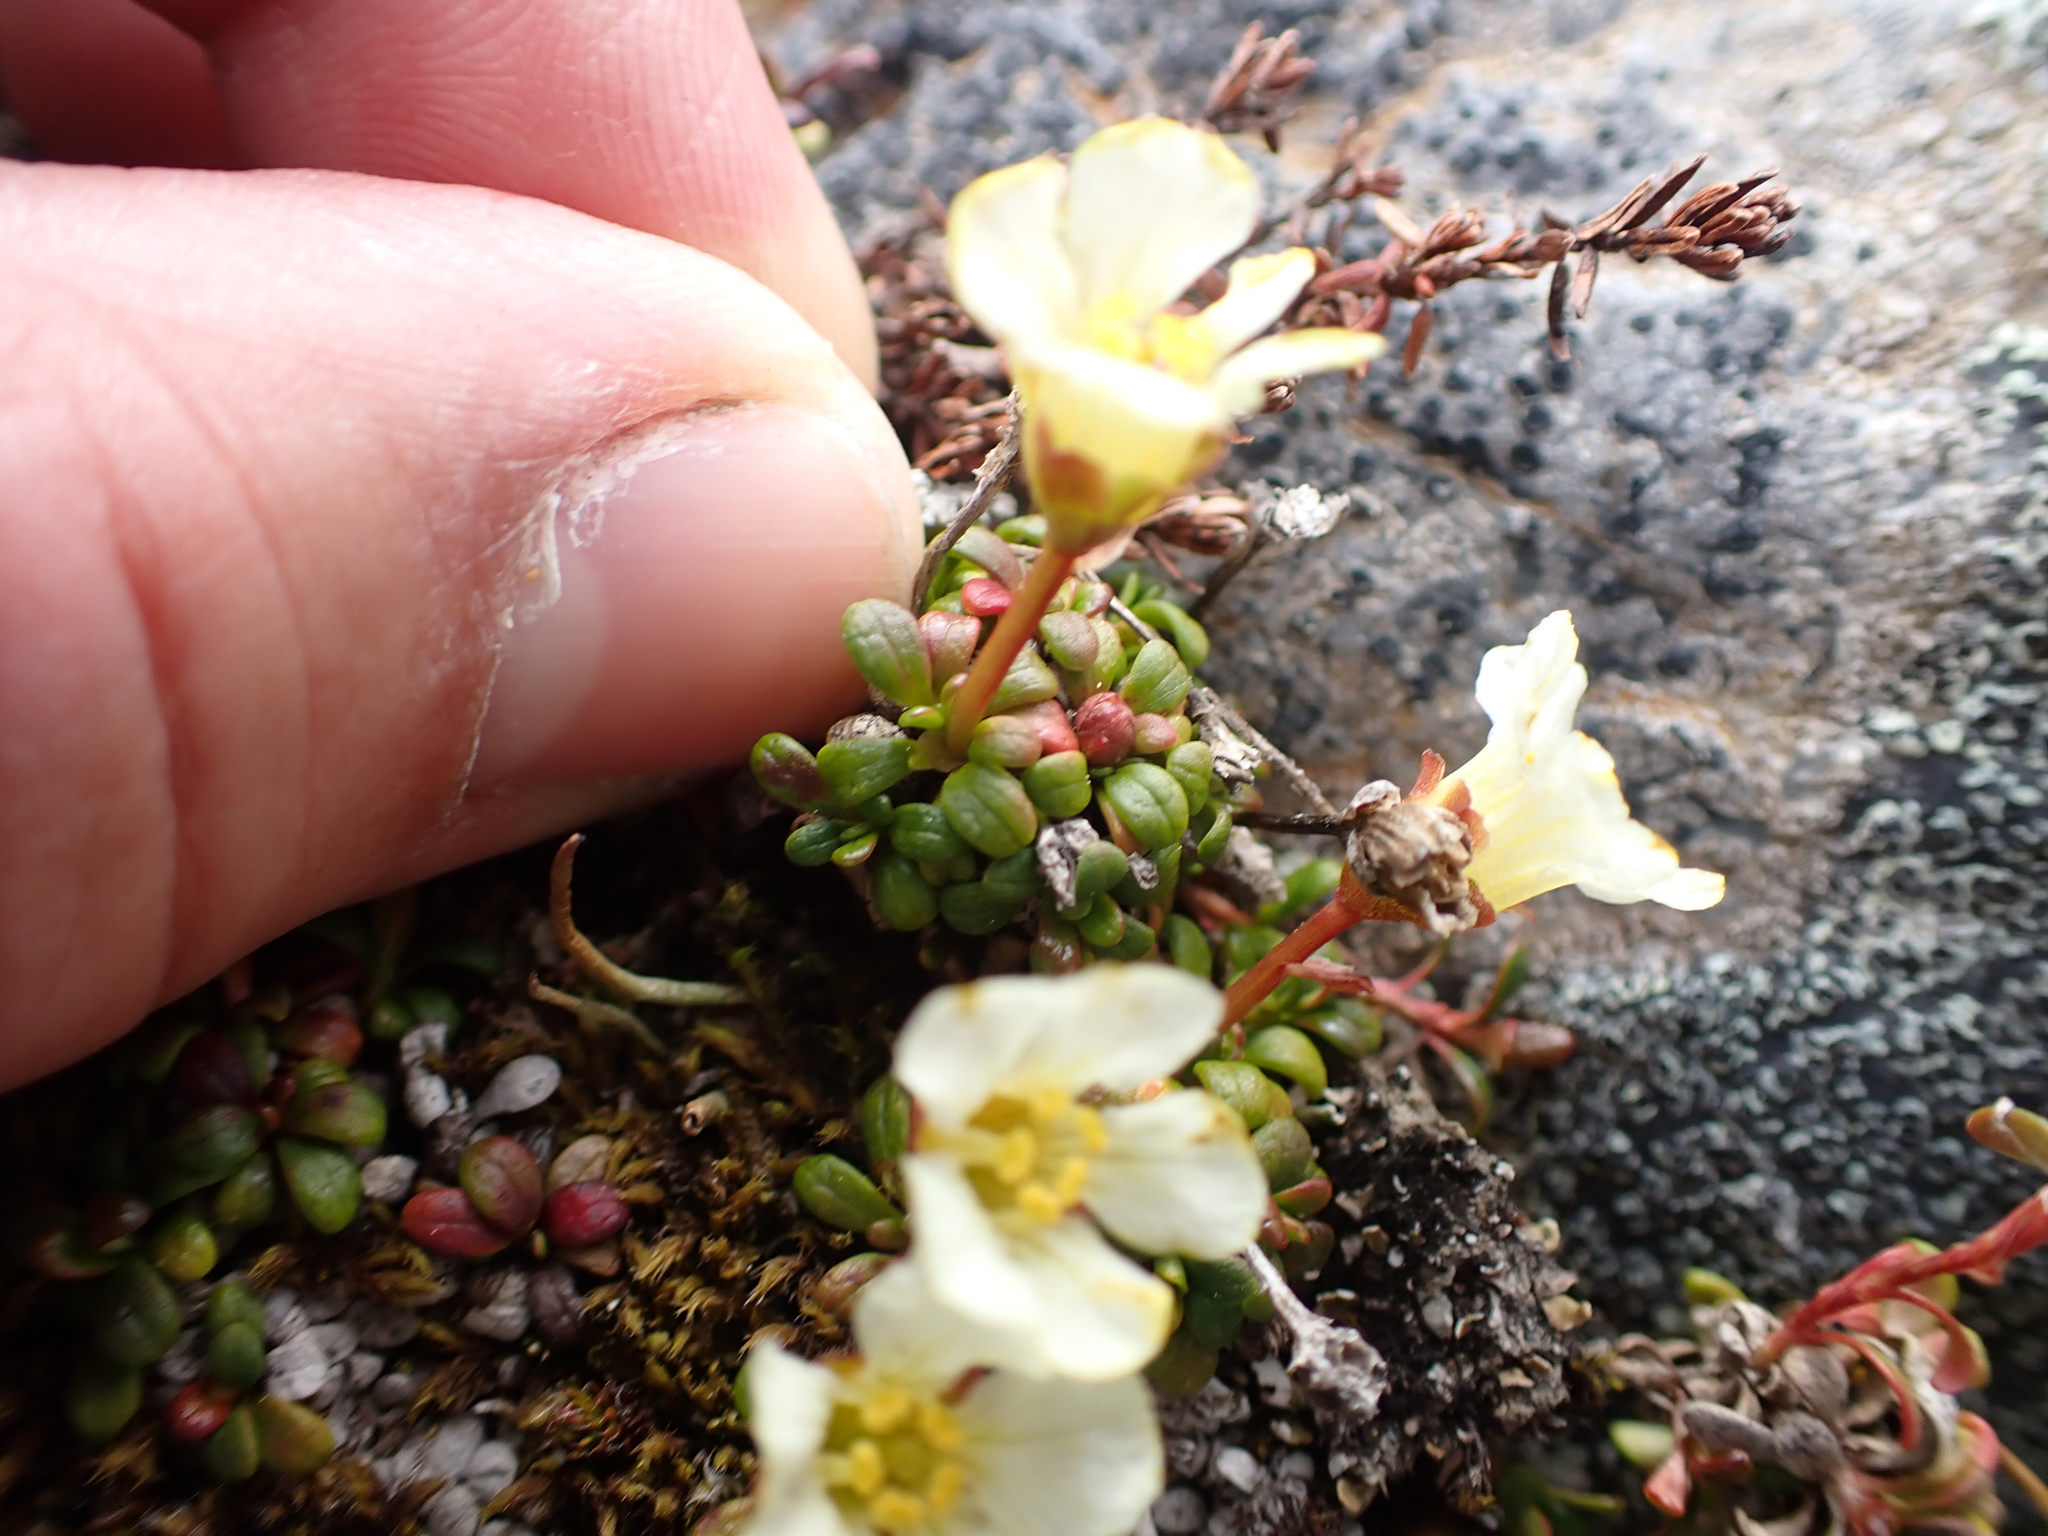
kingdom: Plantae
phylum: Tracheophyta
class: Magnoliopsida
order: Ericales
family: Diapensiaceae
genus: Diapensia
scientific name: Diapensia obovata
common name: Alaska diapensia
